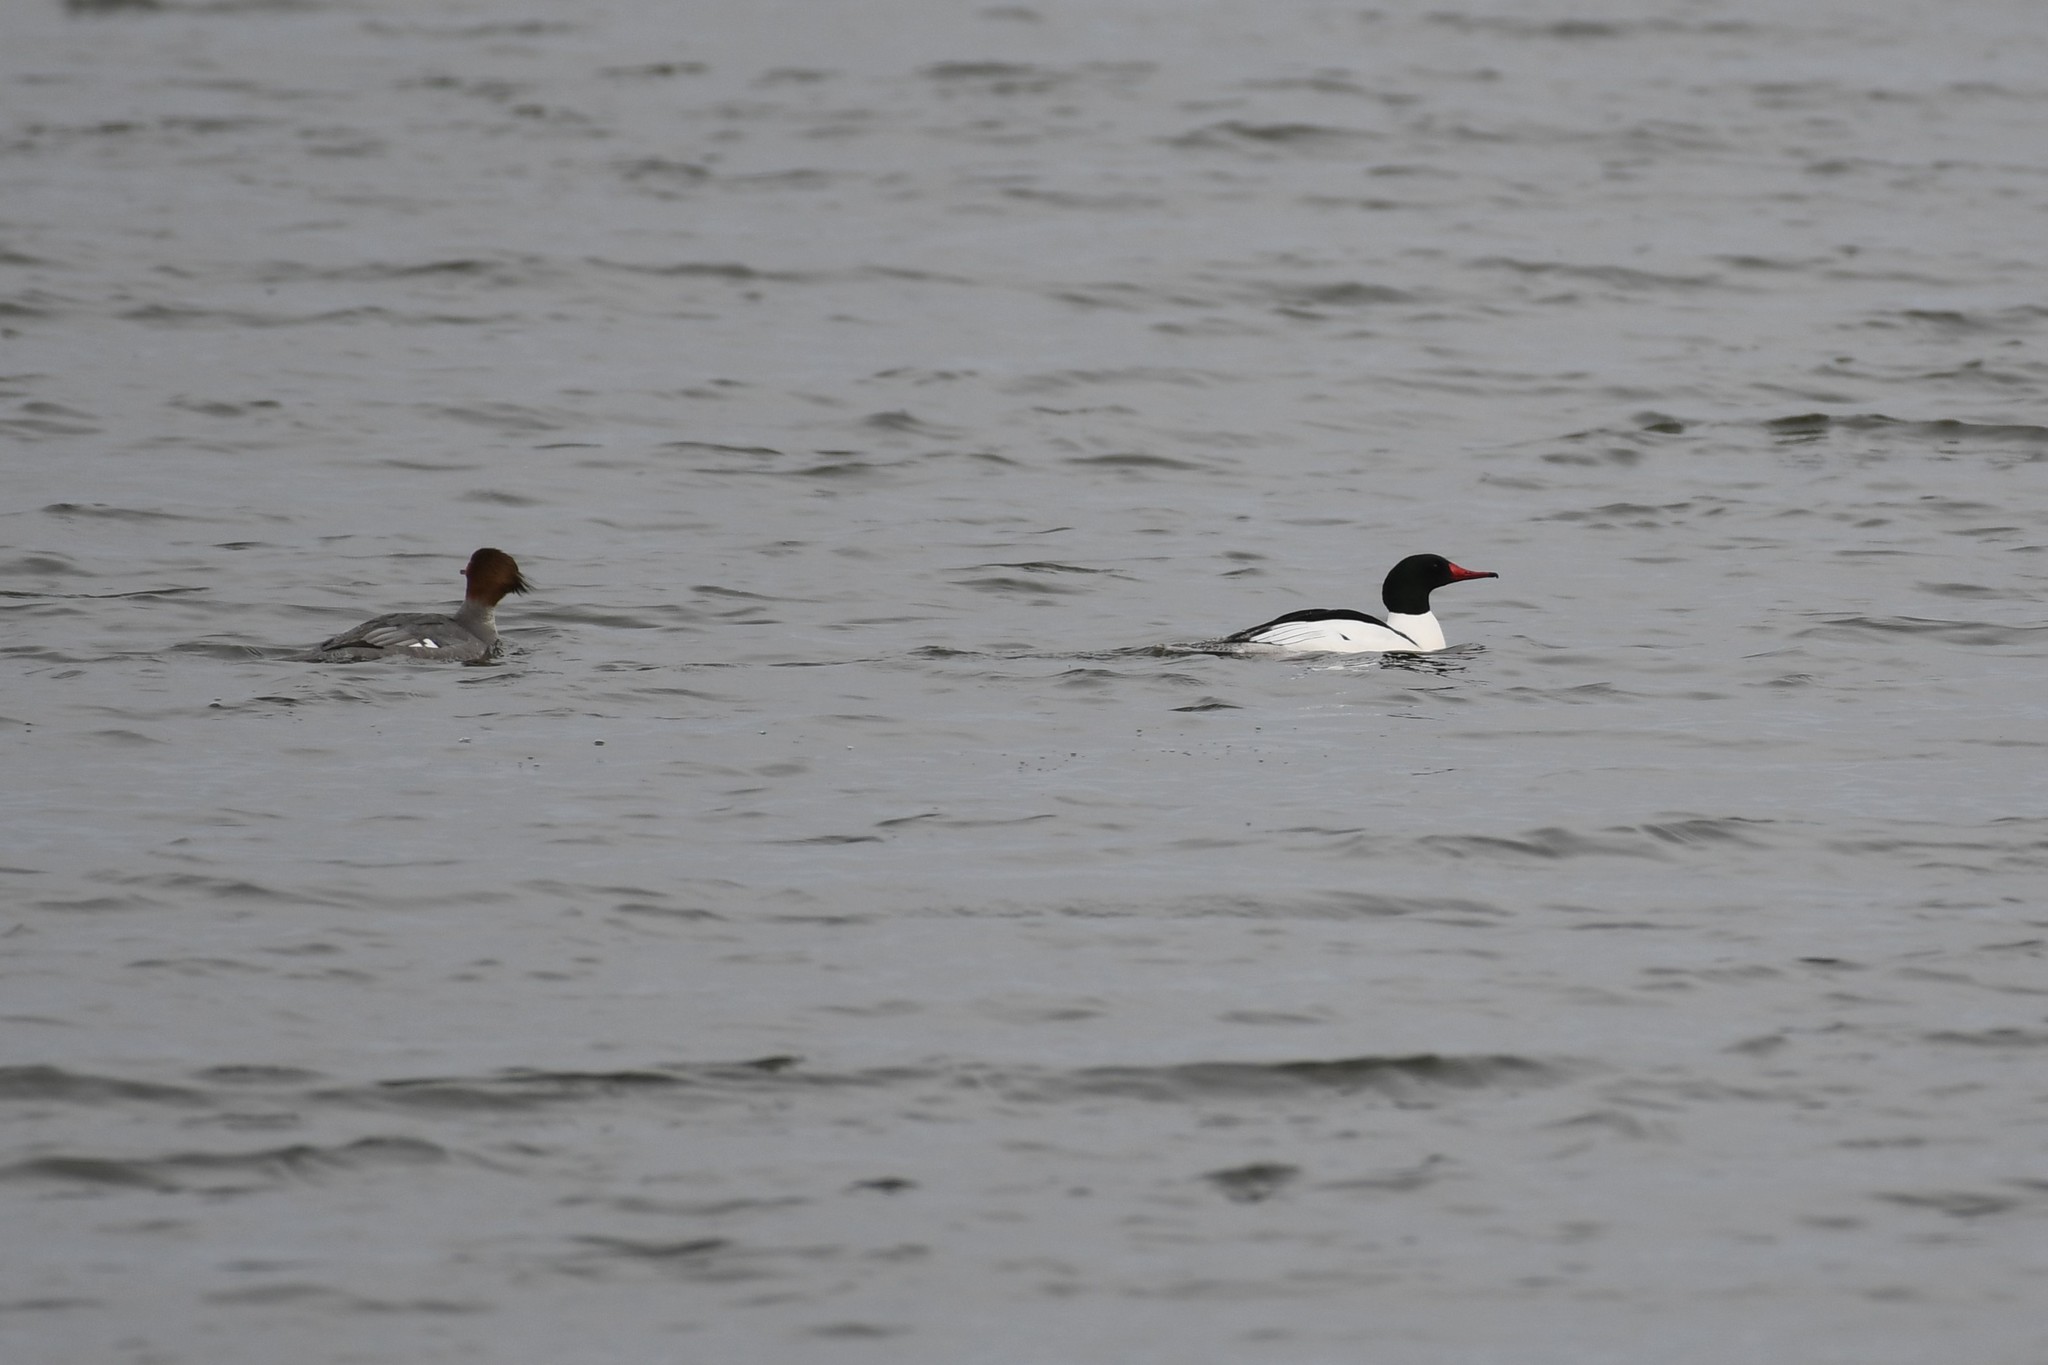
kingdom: Animalia
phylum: Chordata
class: Aves
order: Anseriformes
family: Anatidae
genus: Mergus
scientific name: Mergus merganser
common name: Common merganser
